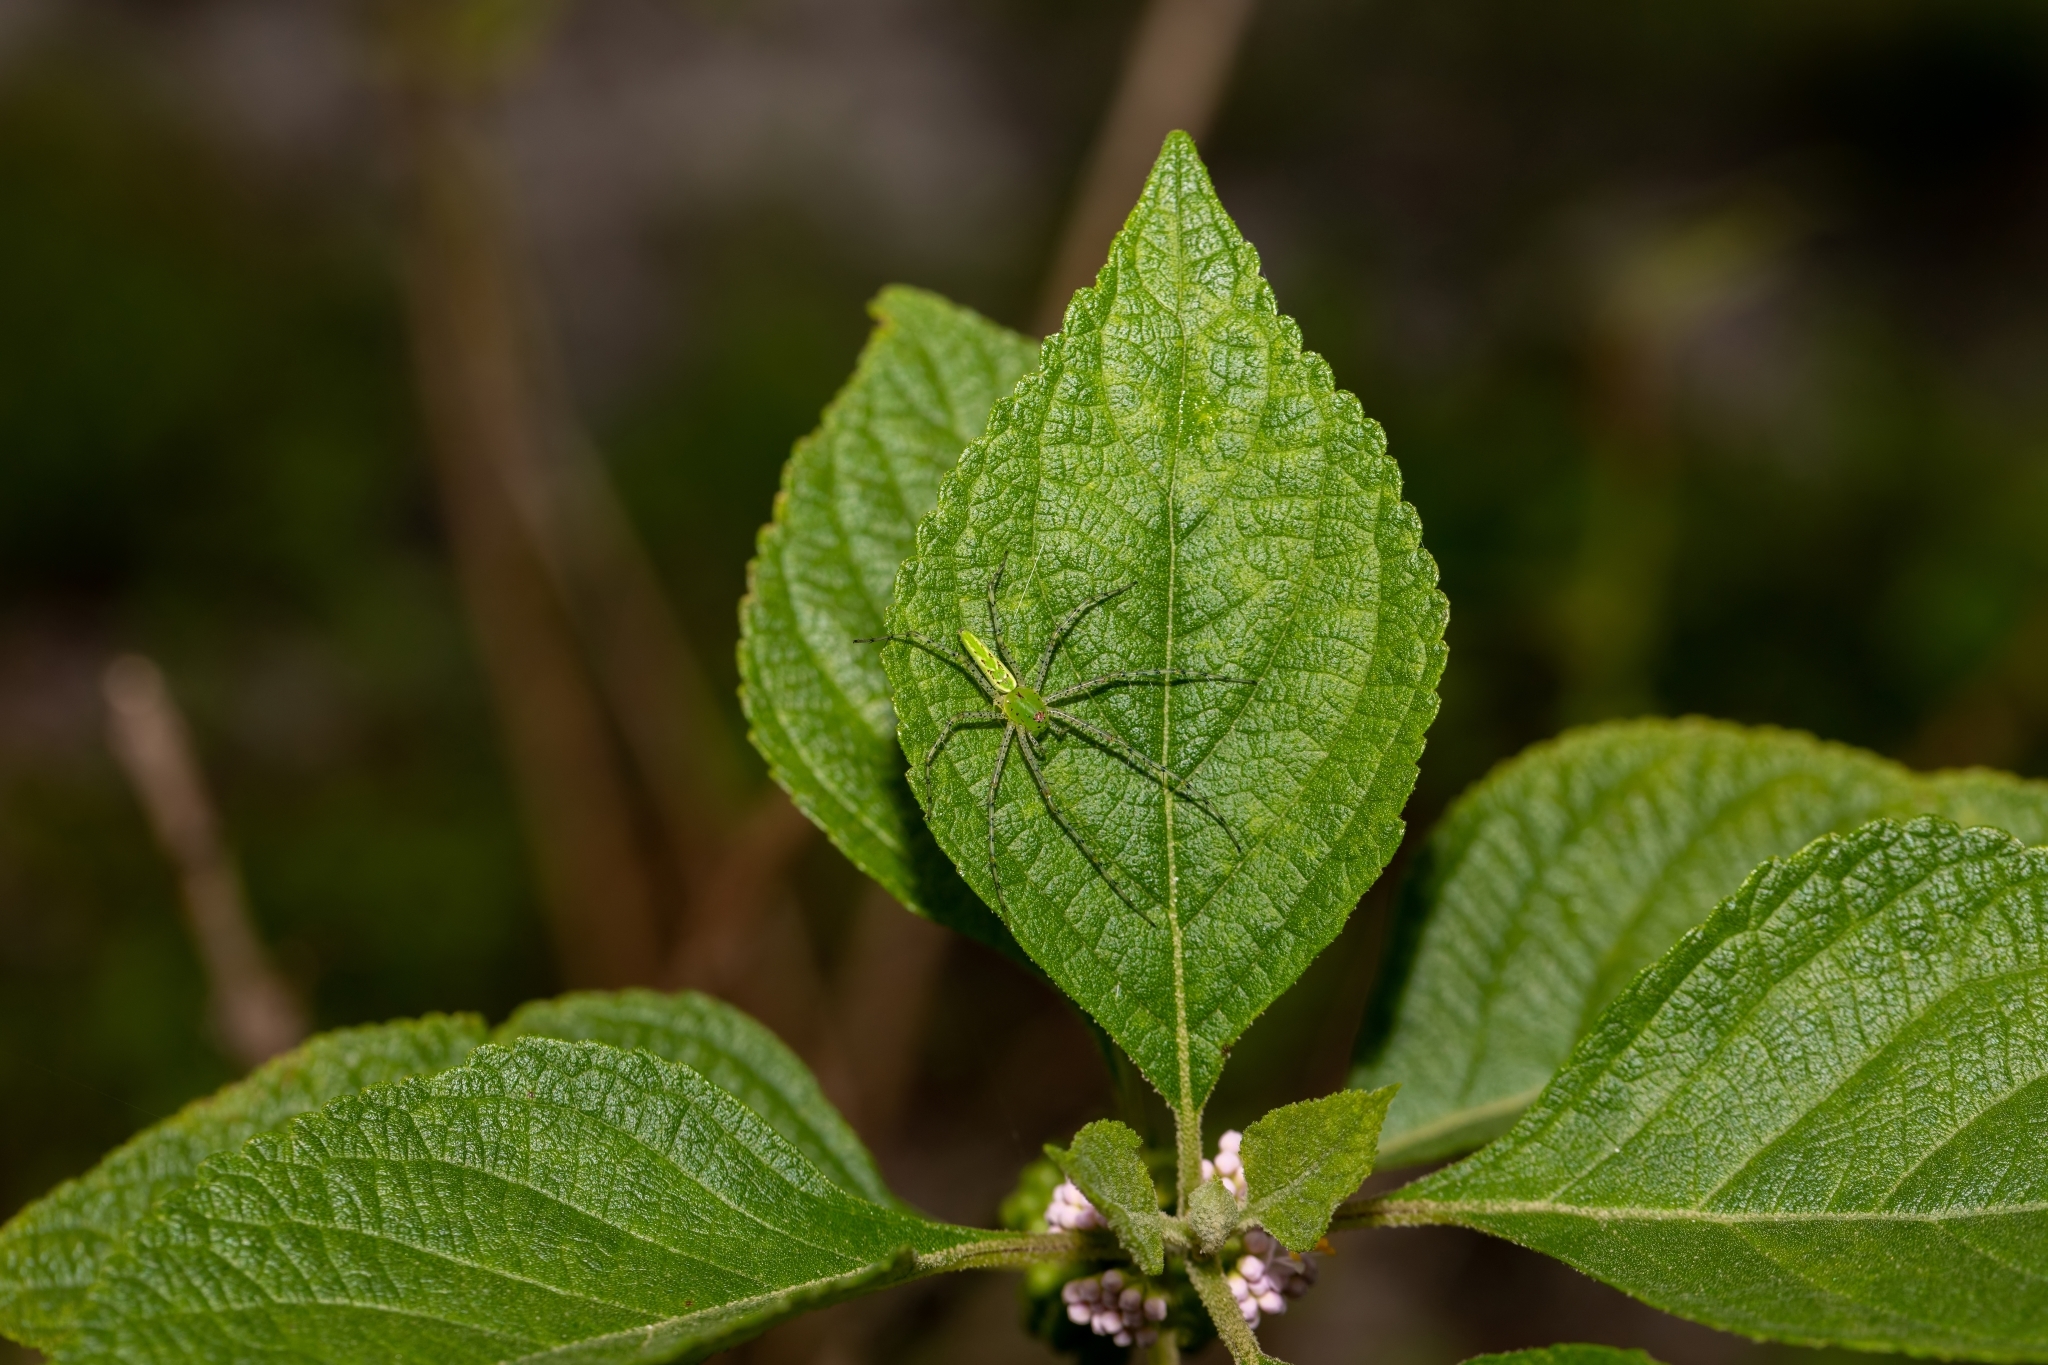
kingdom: Animalia
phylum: Arthropoda
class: Arachnida
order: Araneae
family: Oxyopidae
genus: Peucetia
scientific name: Peucetia viridans
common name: Lynx spiders
